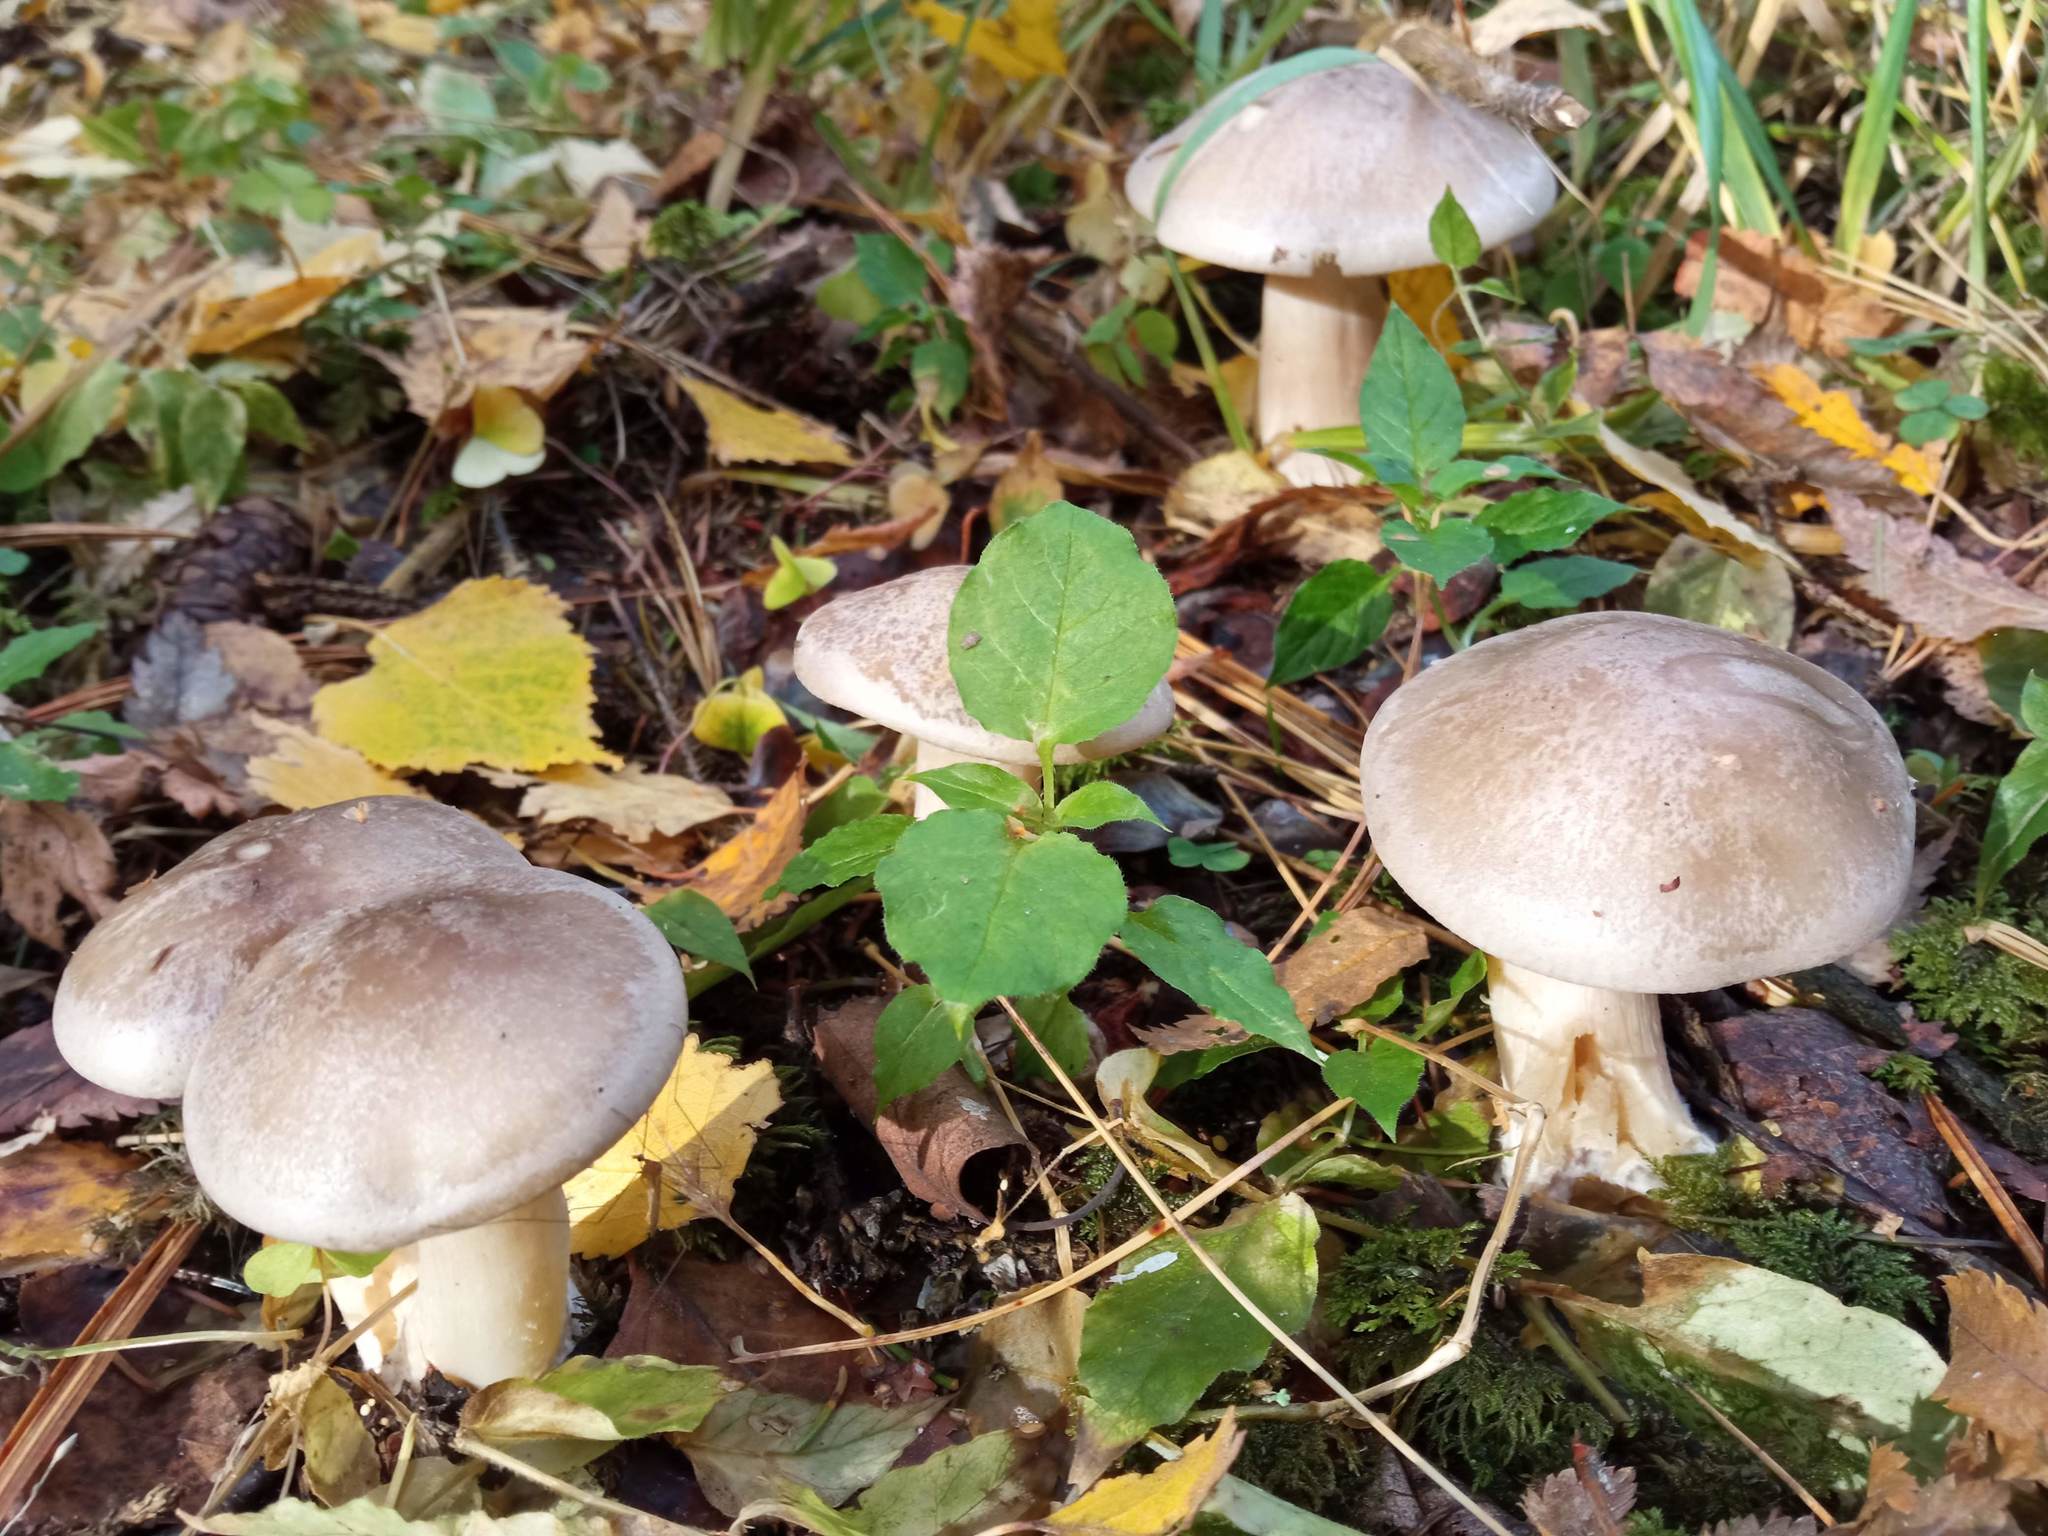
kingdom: Fungi
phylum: Basidiomycota
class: Agaricomycetes
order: Agaricales
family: Tricholomataceae
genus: Clitocybe
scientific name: Clitocybe nebularis
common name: Clouded agaric
